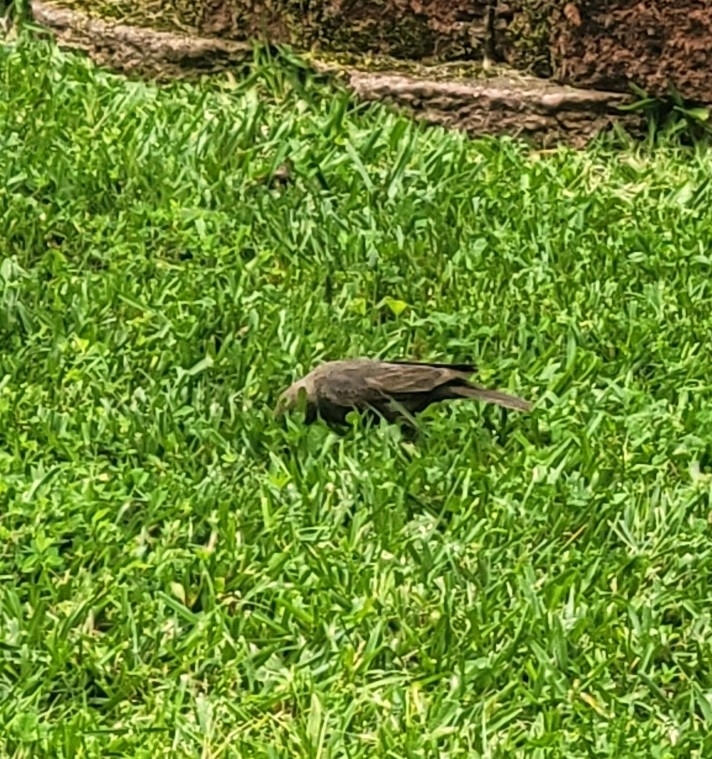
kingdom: Animalia
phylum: Chordata
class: Aves
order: Passeriformes
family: Icteridae
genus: Molothrus
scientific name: Molothrus ater
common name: Brown-headed cowbird
